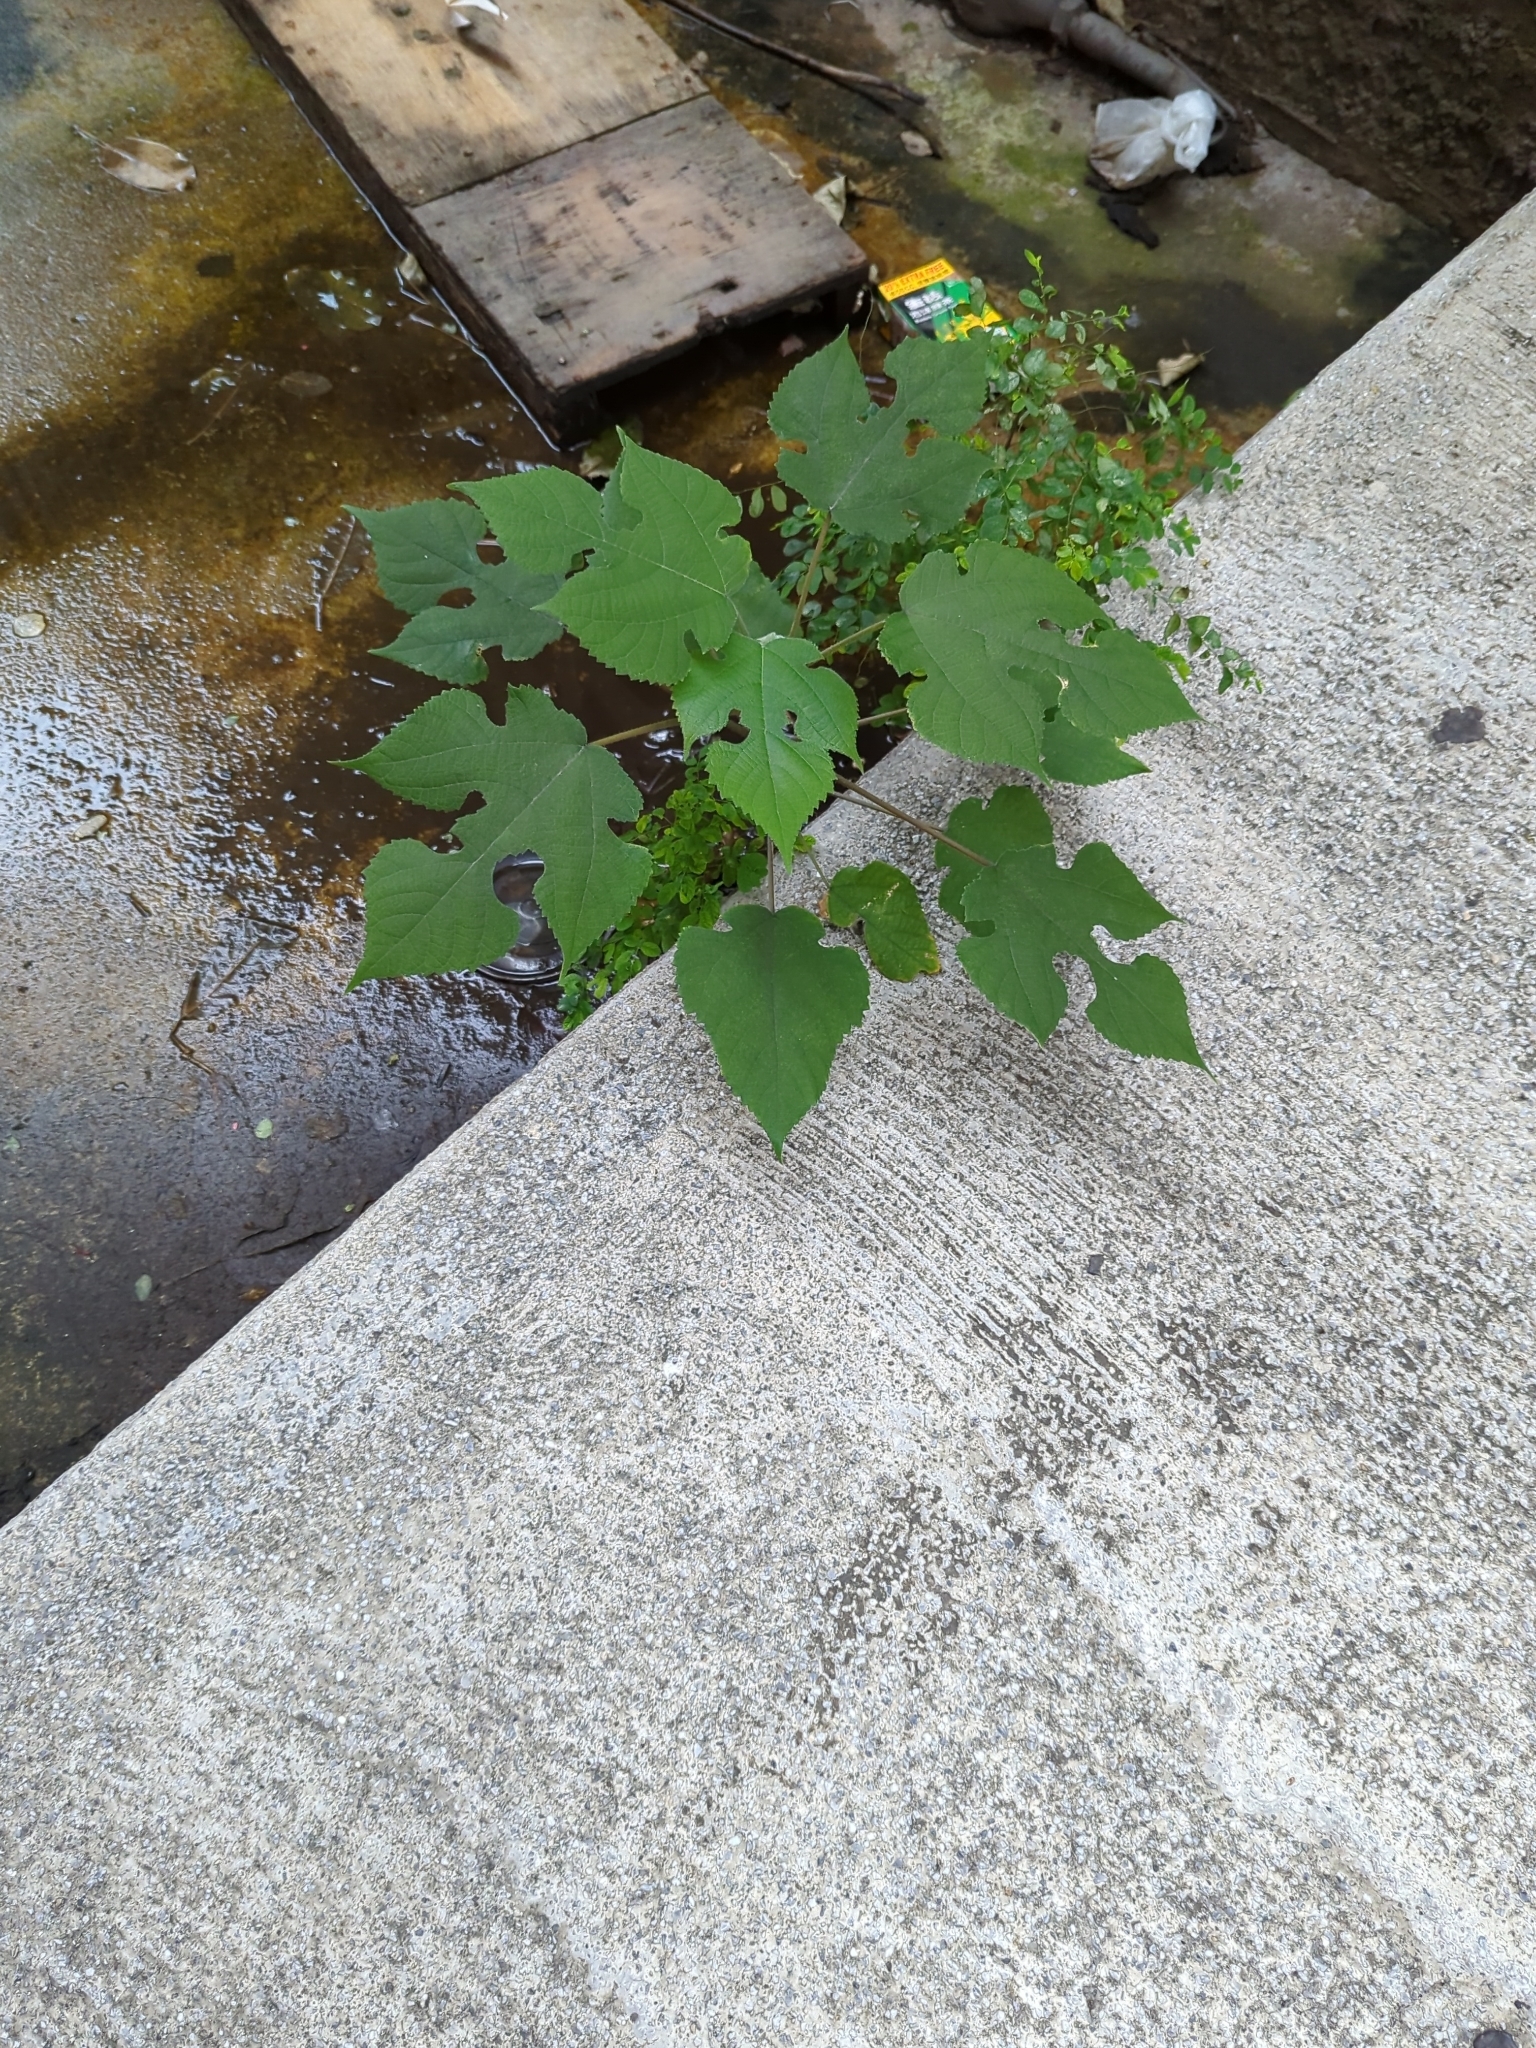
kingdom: Plantae
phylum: Tracheophyta
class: Magnoliopsida
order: Rosales
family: Moraceae
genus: Broussonetia
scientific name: Broussonetia papyrifera
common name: Paper mulberry
